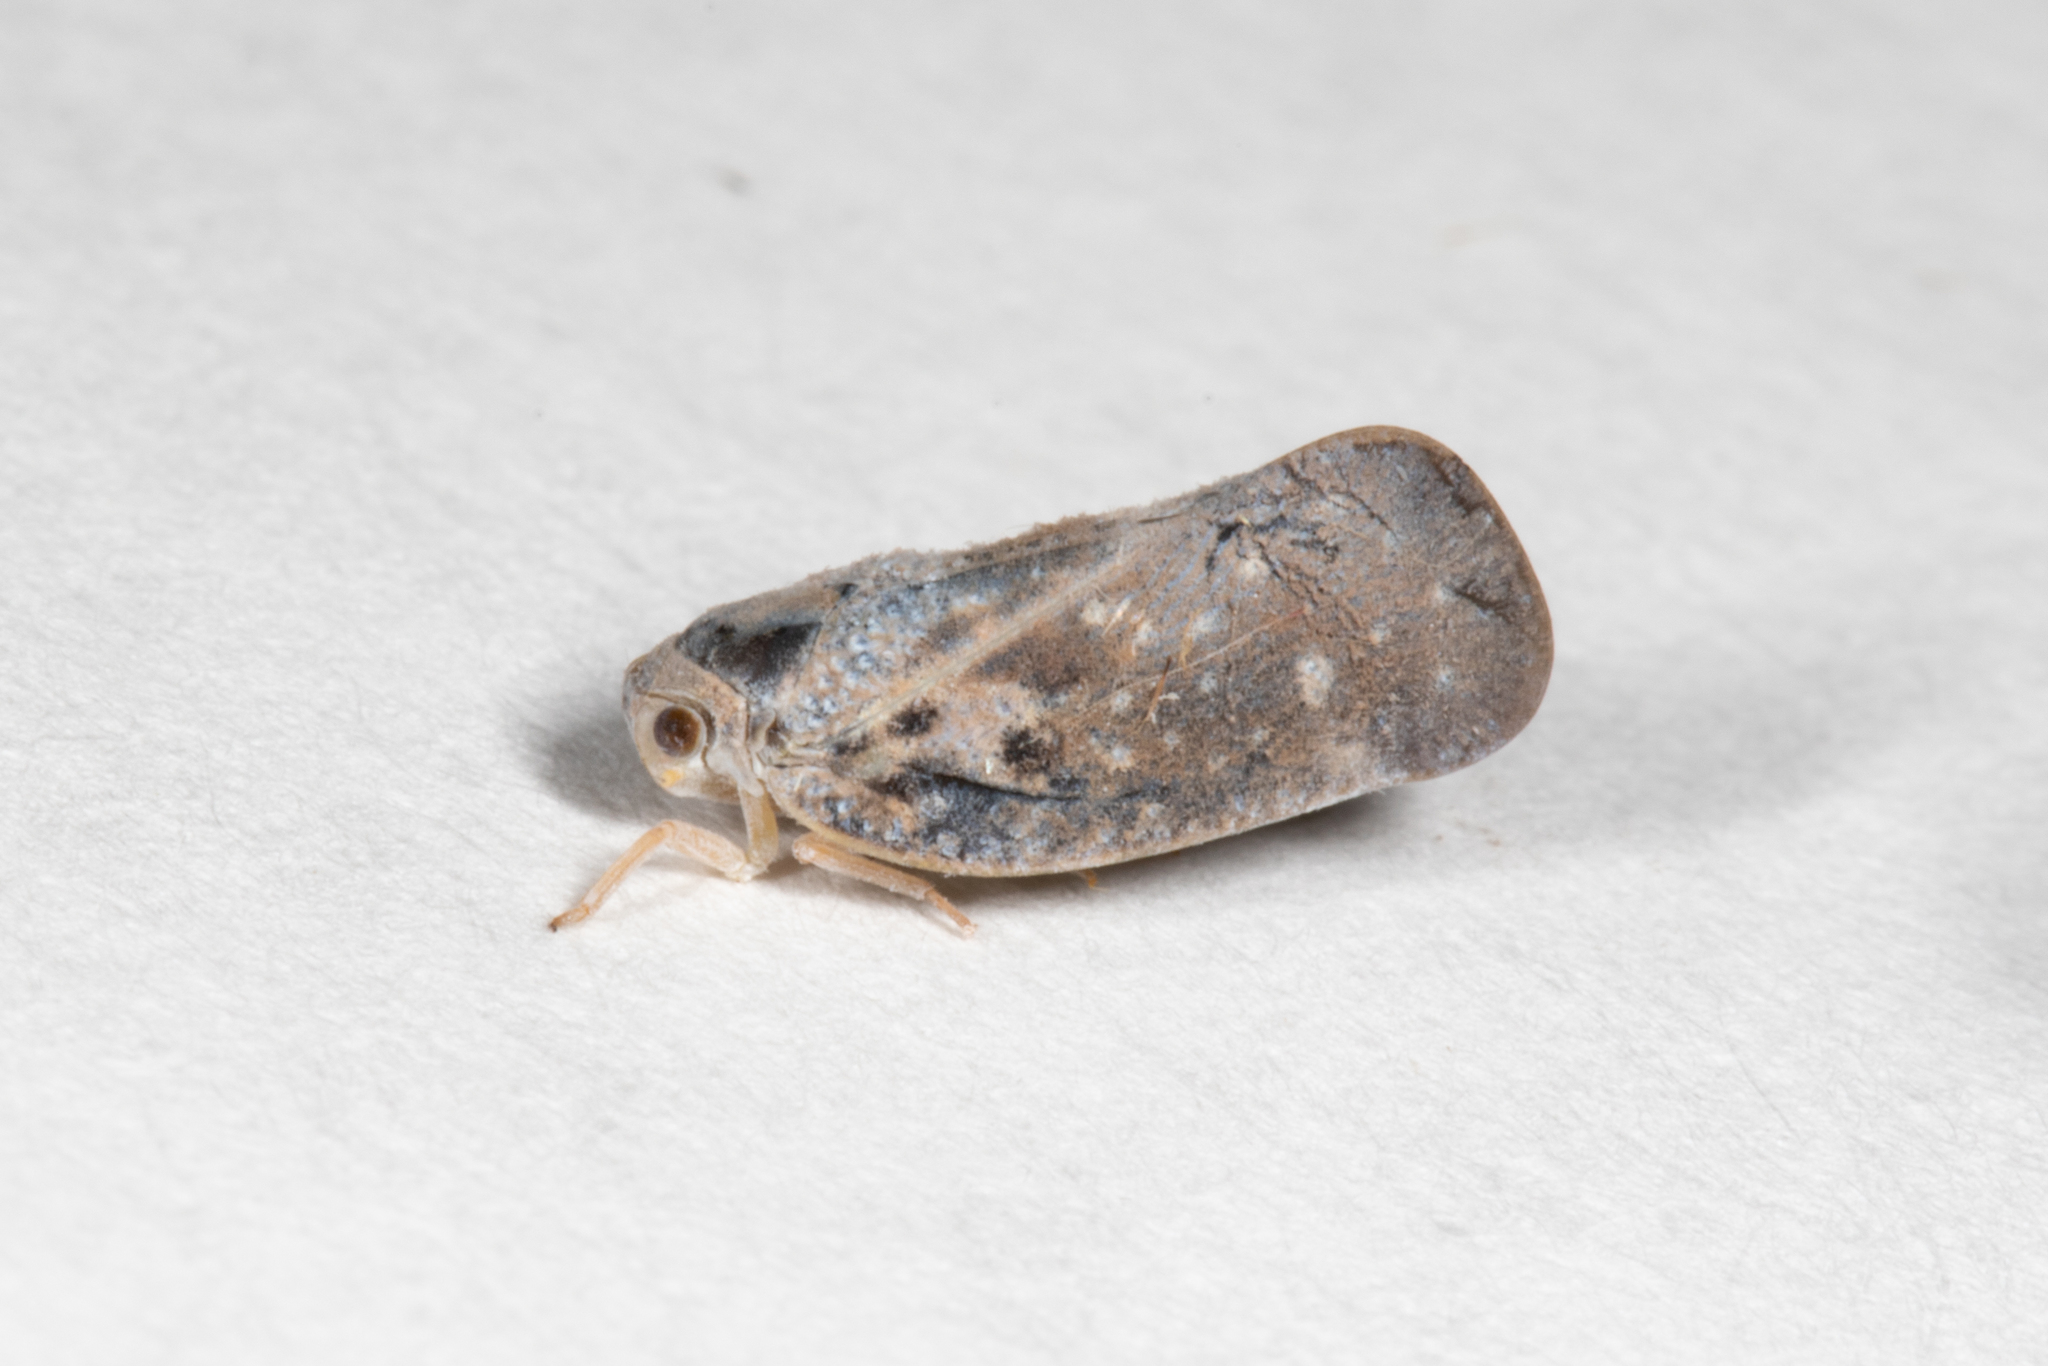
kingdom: Animalia
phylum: Arthropoda
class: Insecta
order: Hemiptera
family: Flatidae
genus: Metcalfa
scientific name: Metcalfa pruinosa
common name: Citrus flatid planthopper
